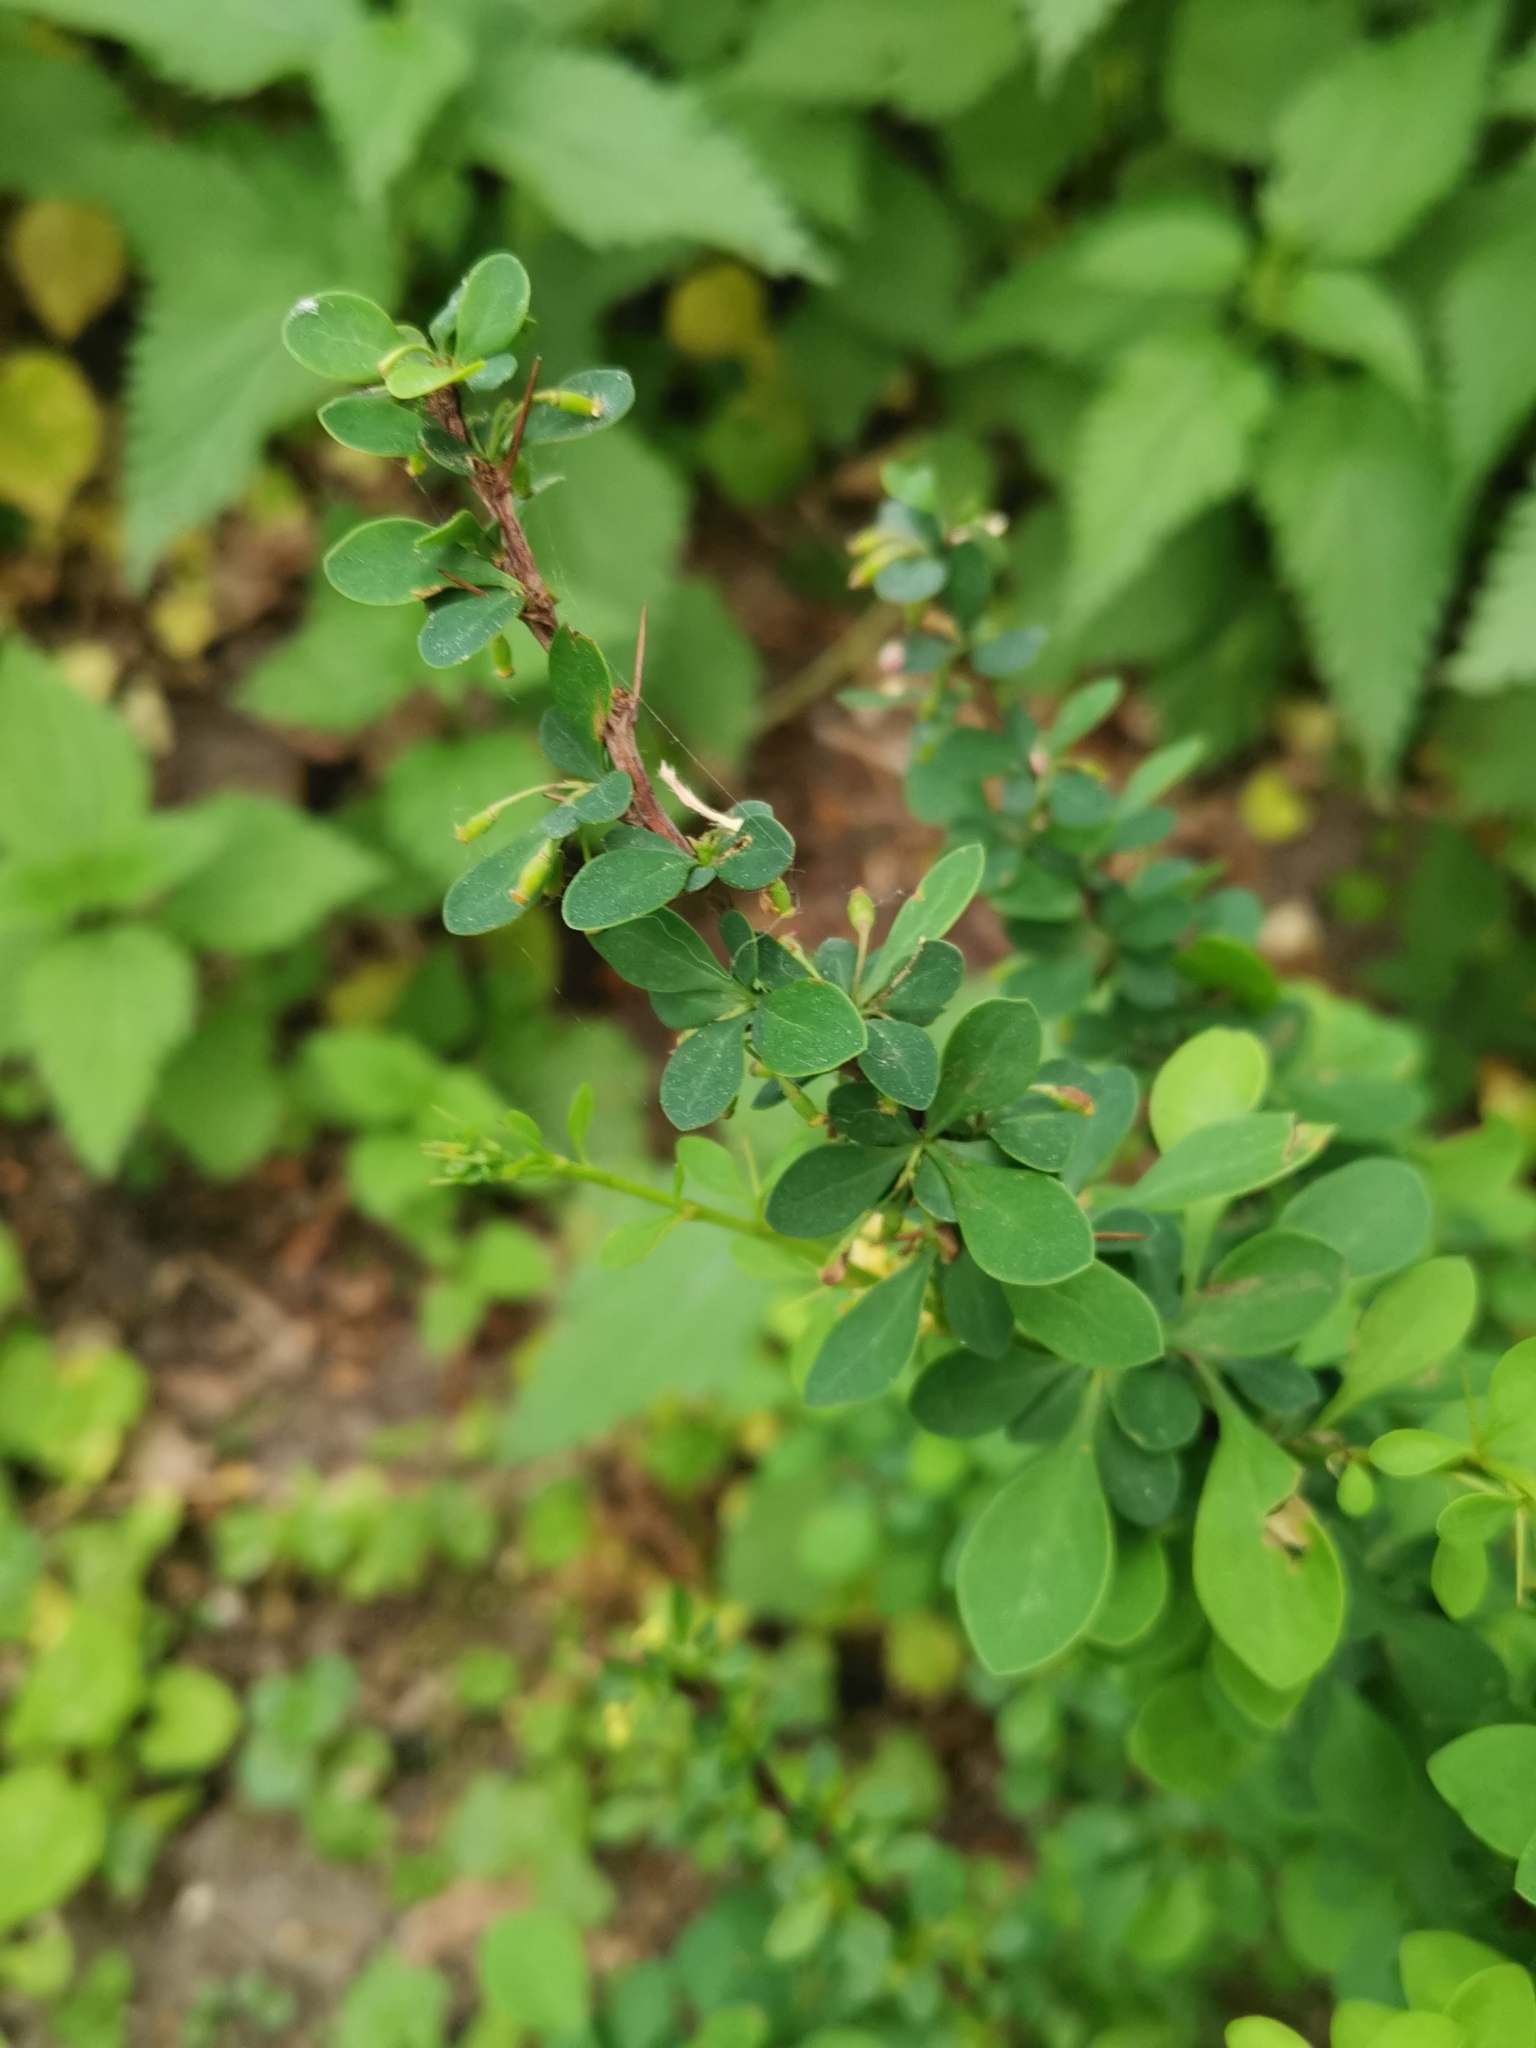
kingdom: Plantae
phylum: Tracheophyta
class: Magnoliopsida
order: Ranunculales
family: Berberidaceae
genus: Berberis
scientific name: Berberis thunbergii
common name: Japanese barberry
